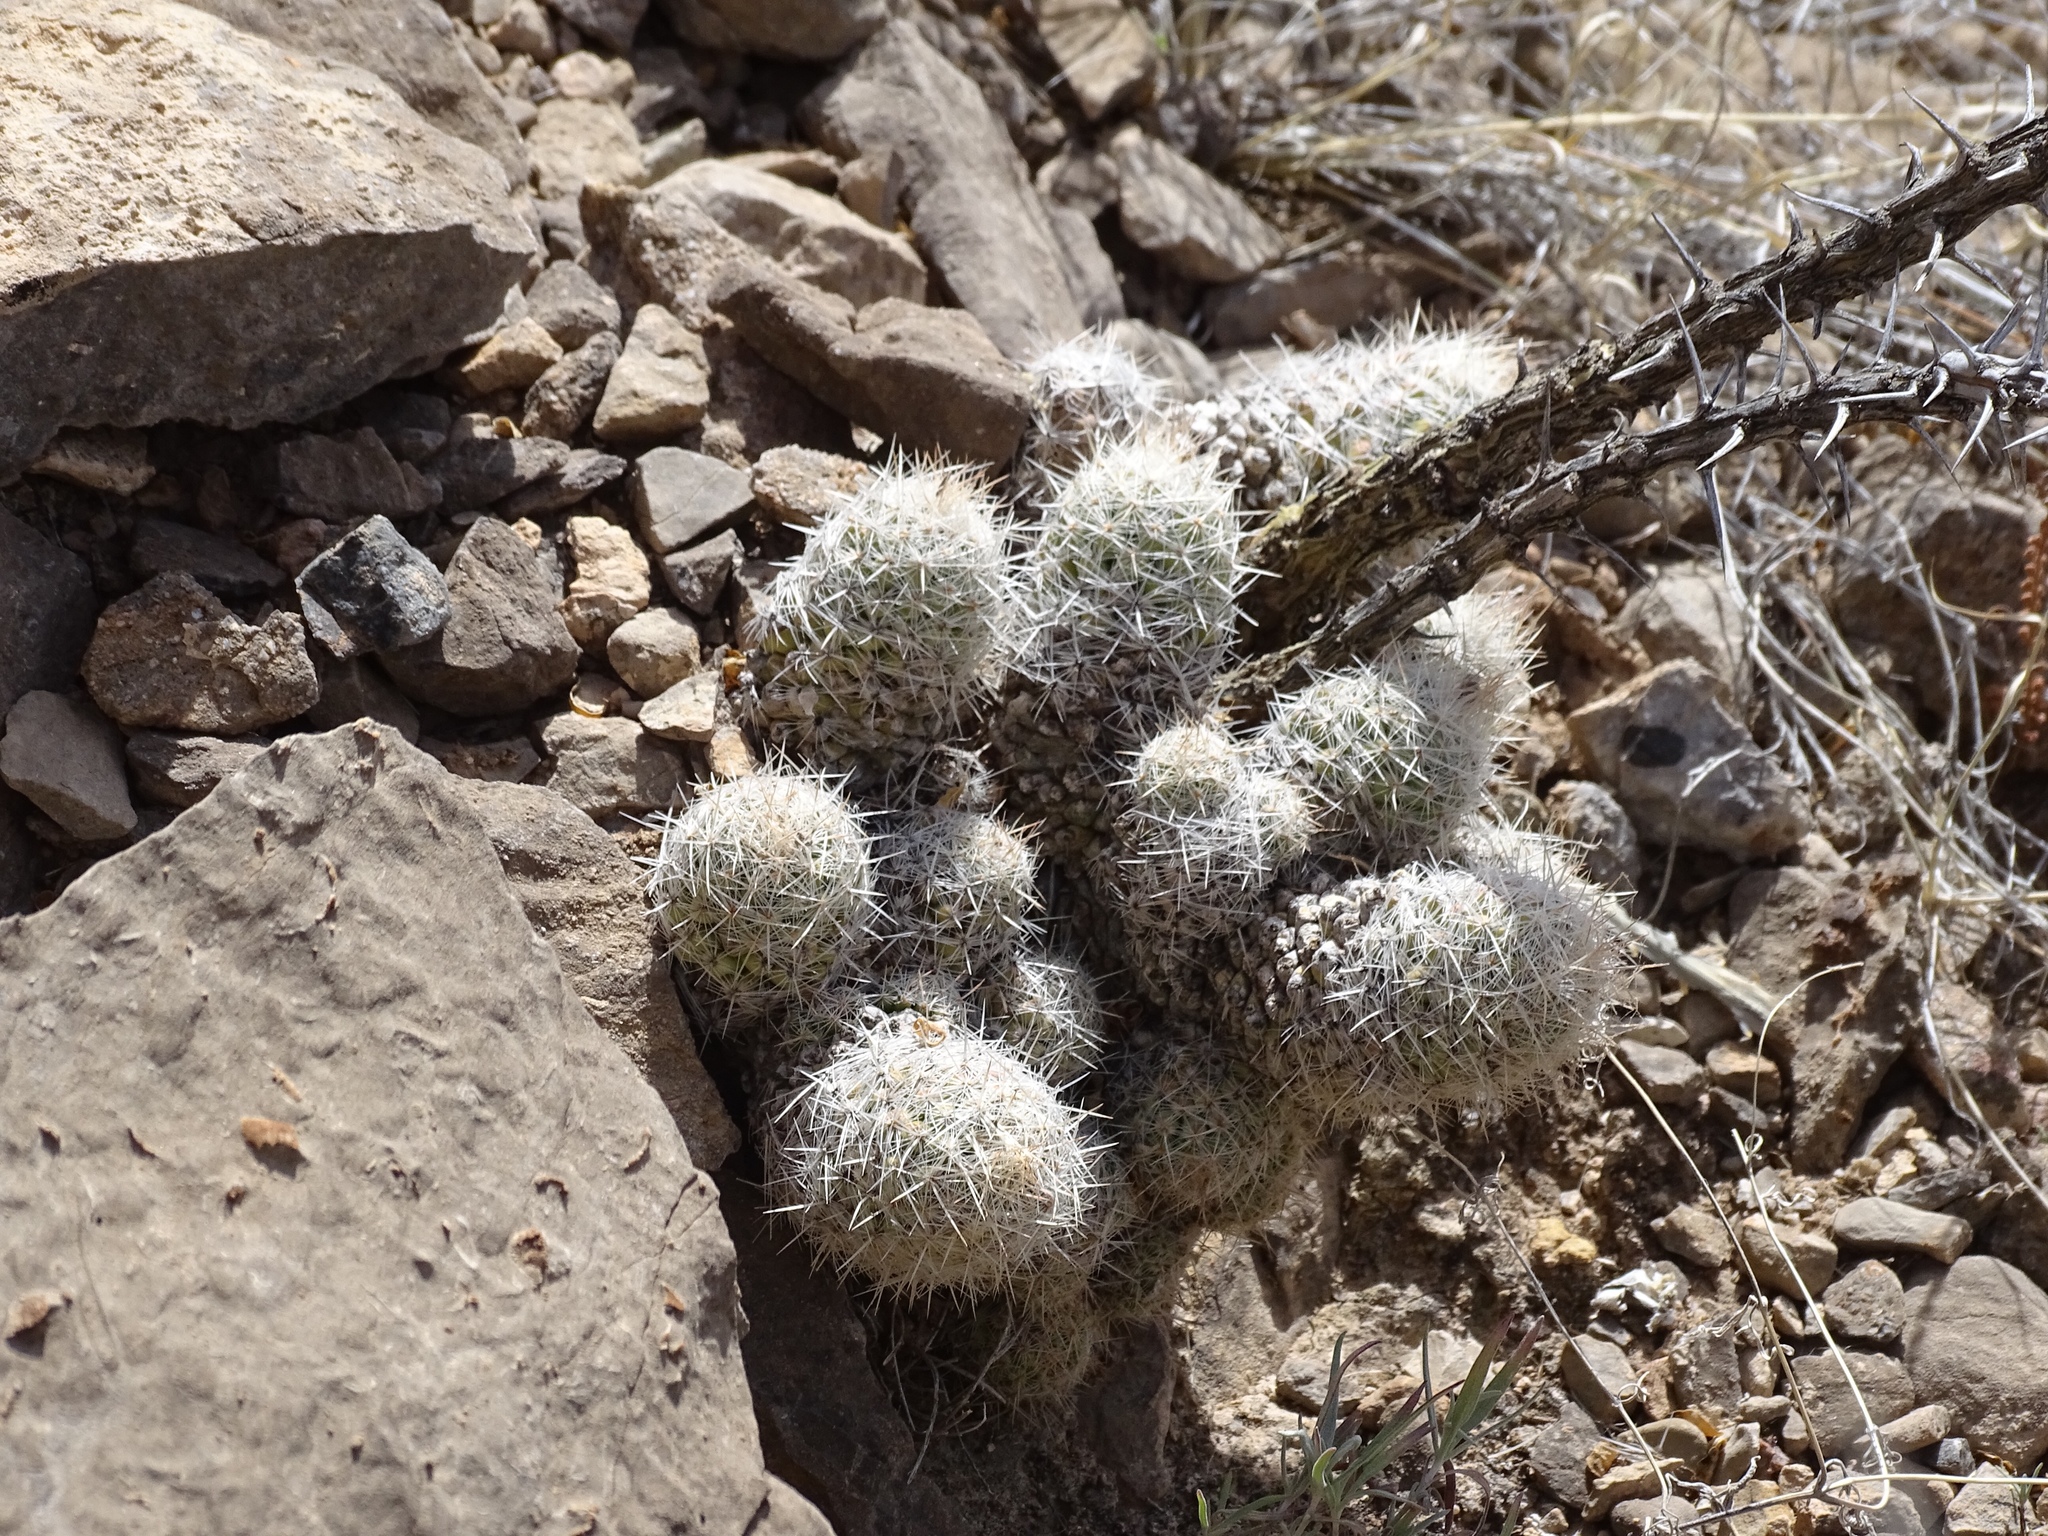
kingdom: Plantae
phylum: Tracheophyta
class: Magnoliopsida
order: Caryophyllales
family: Cactaceae
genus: Pelecyphora
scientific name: Pelecyphora tuberculosa
